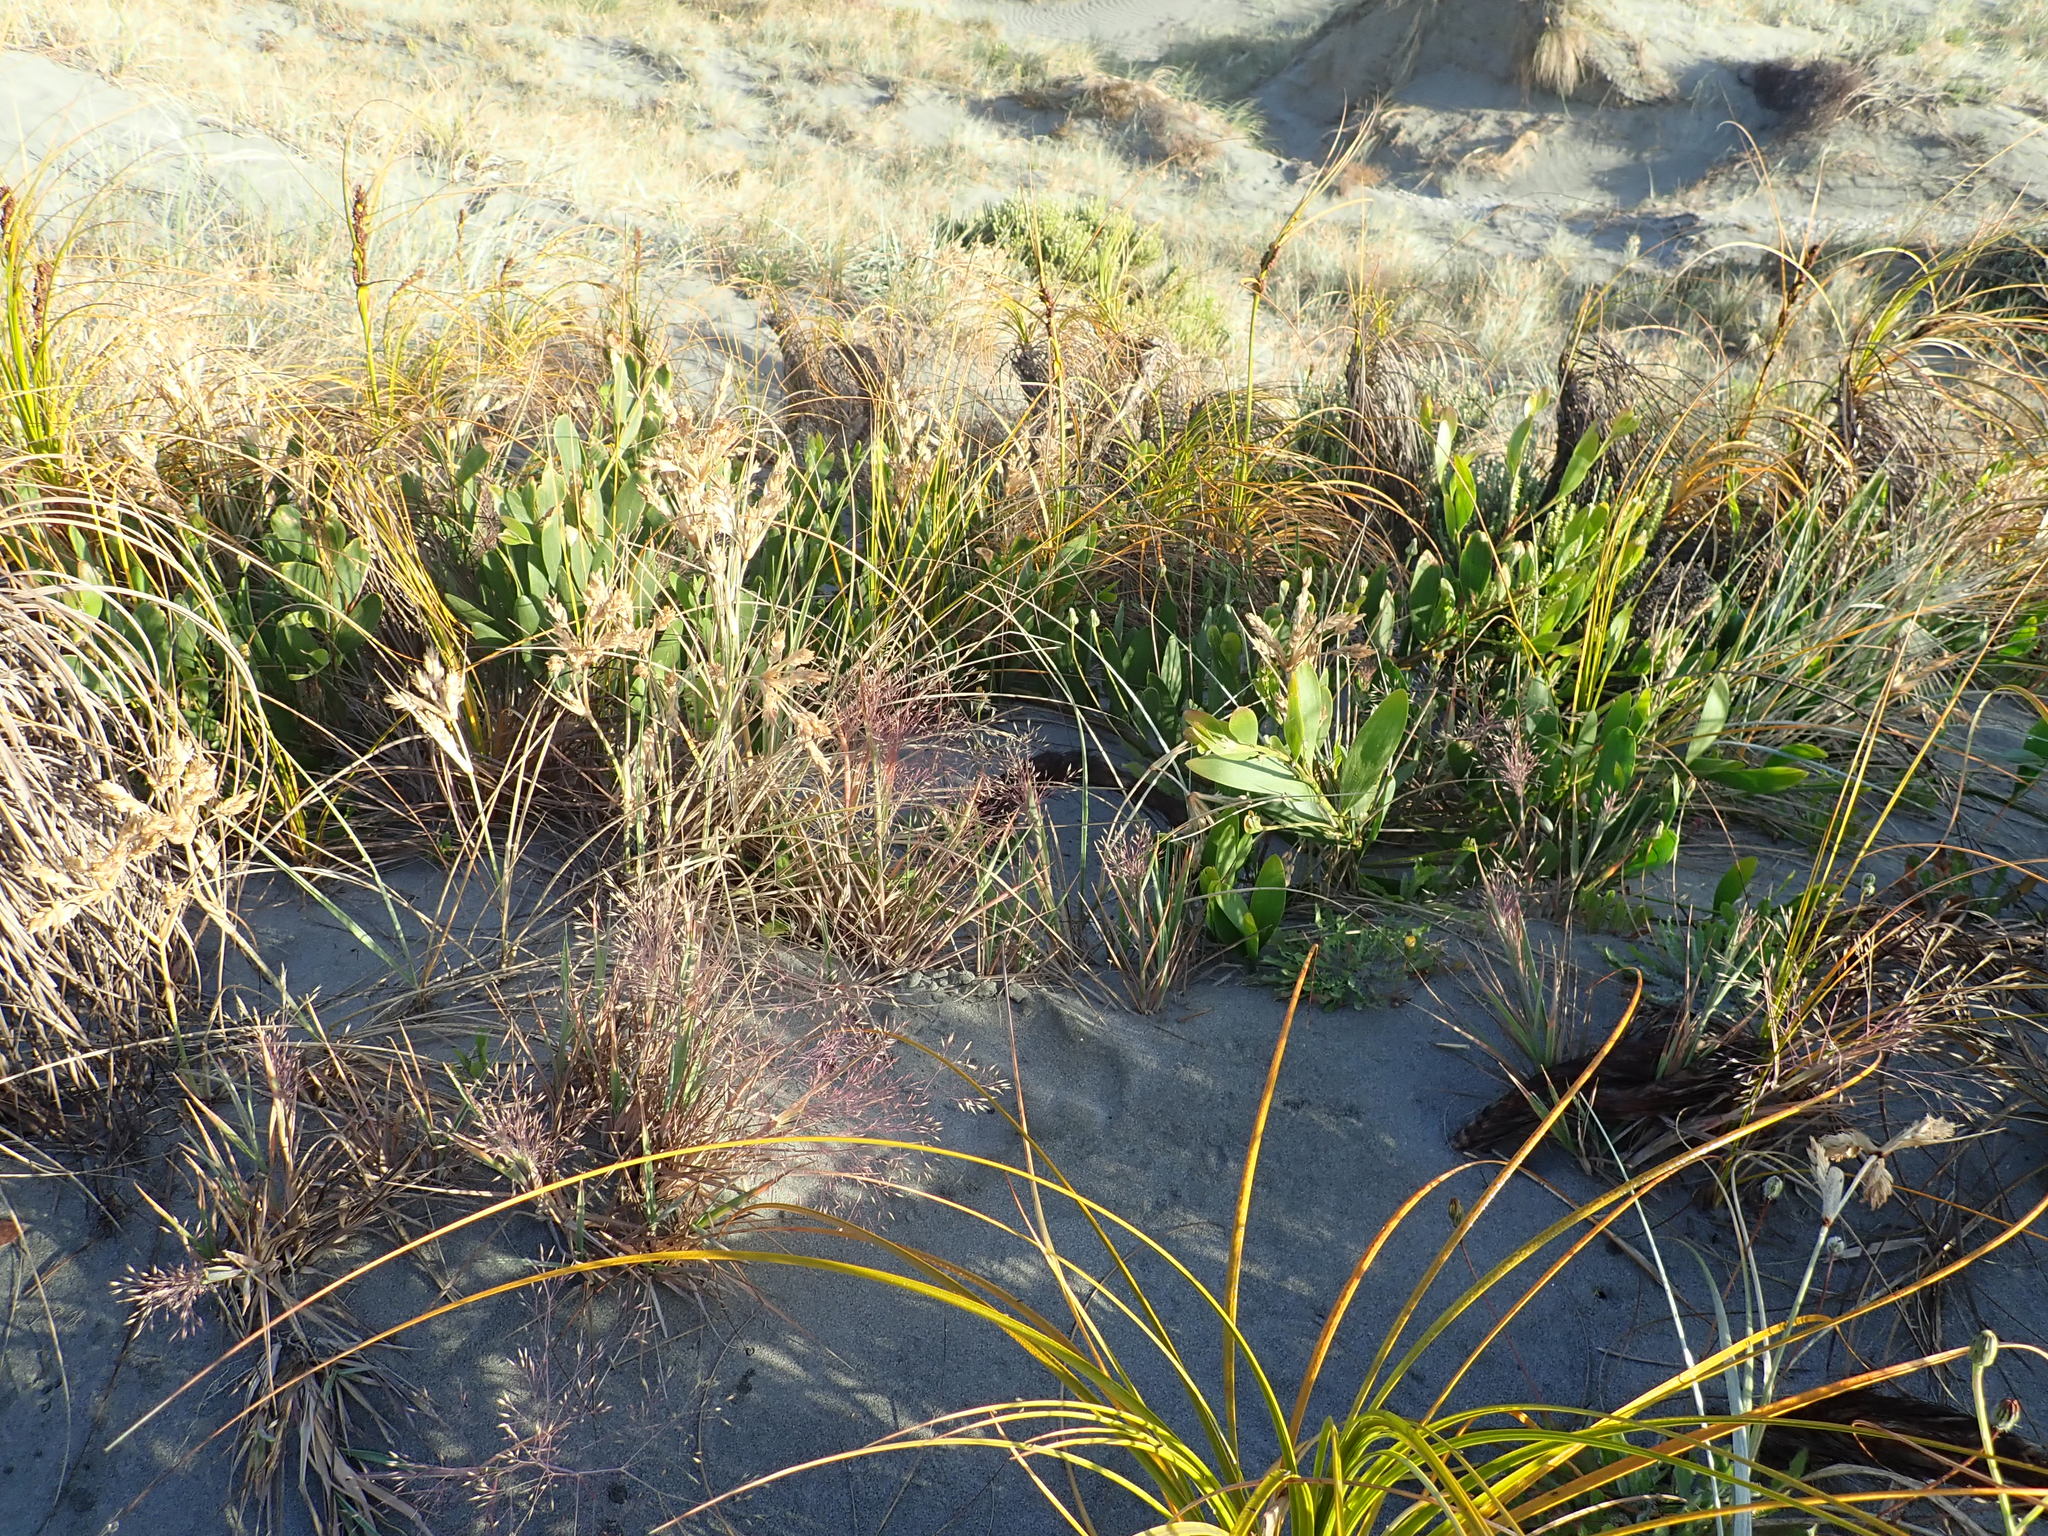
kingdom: Plantae
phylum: Tracheophyta
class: Magnoliopsida
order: Fabales
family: Fabaceae
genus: Acacia
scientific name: Acacia longifolia
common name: Sydney golden wattle
